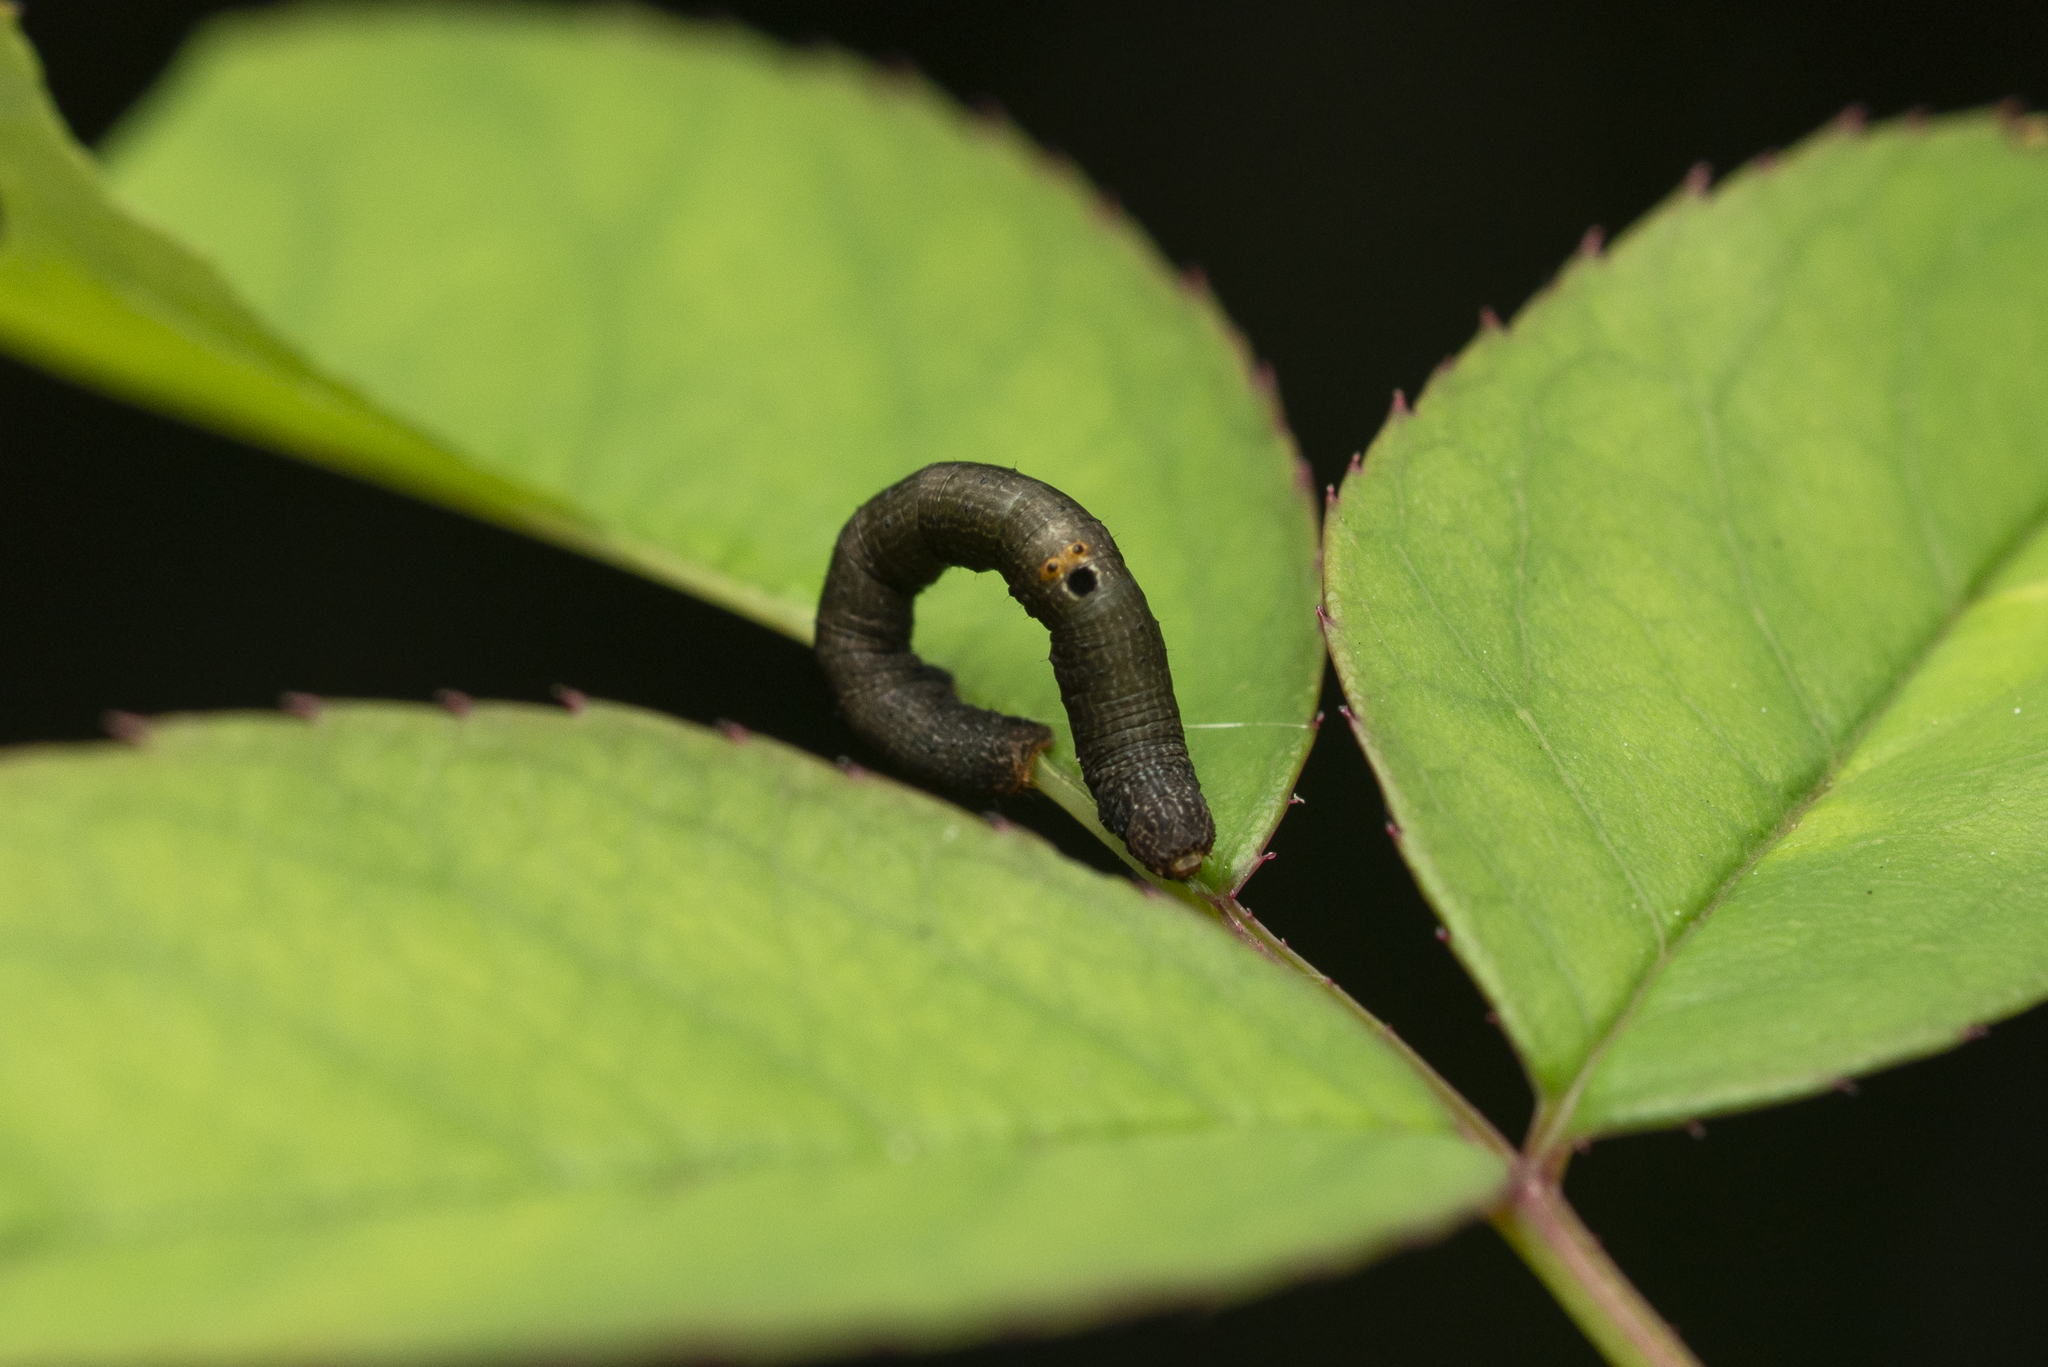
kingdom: Animalia
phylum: Arthropoda
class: Insecta
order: Lepidoptera
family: Geometridae
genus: Ascotis
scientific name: Ascotis selenaria
